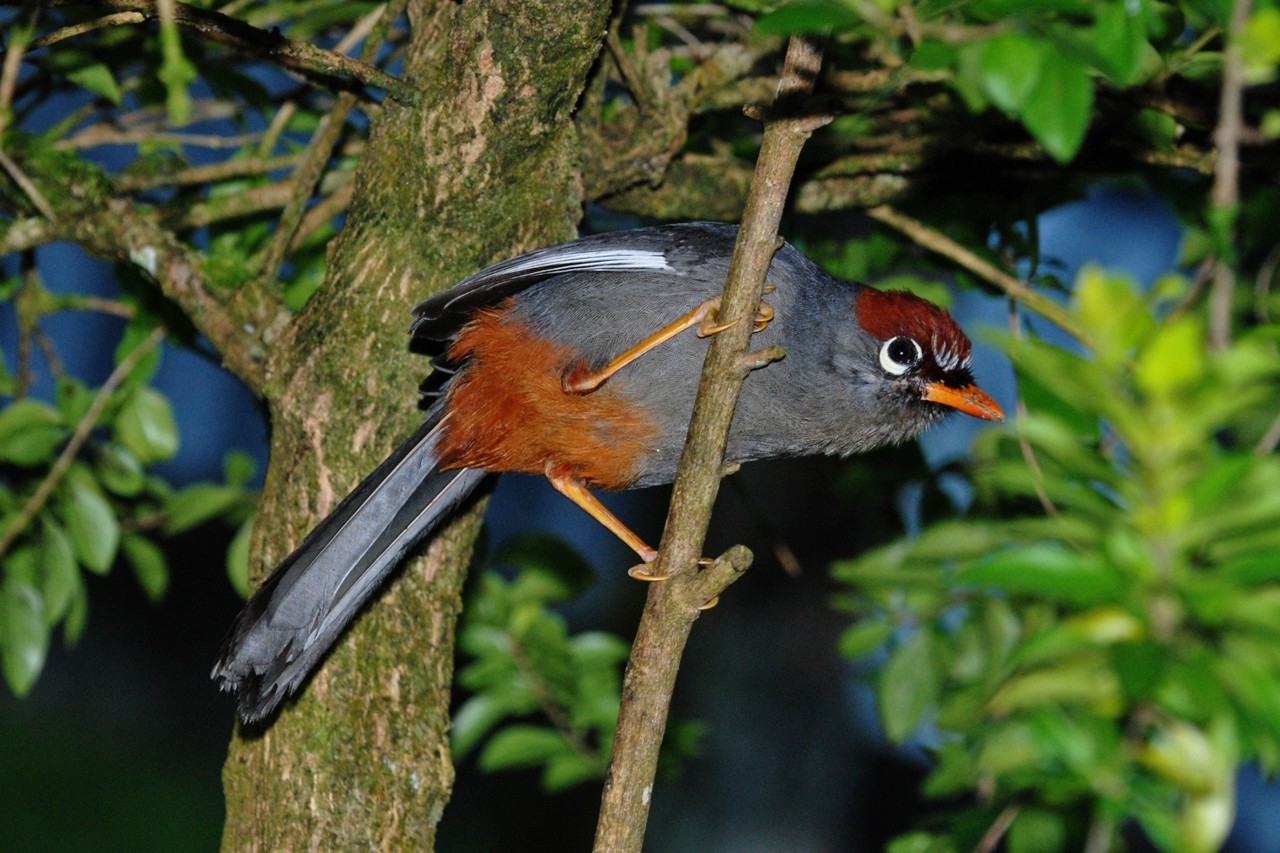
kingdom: Animalia
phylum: Chordata
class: Aves
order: Passeriformes
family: Leiothrichidae
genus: Garrulax
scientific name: Garrulax mitratus
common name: Chestnut-capped laughingthrush
